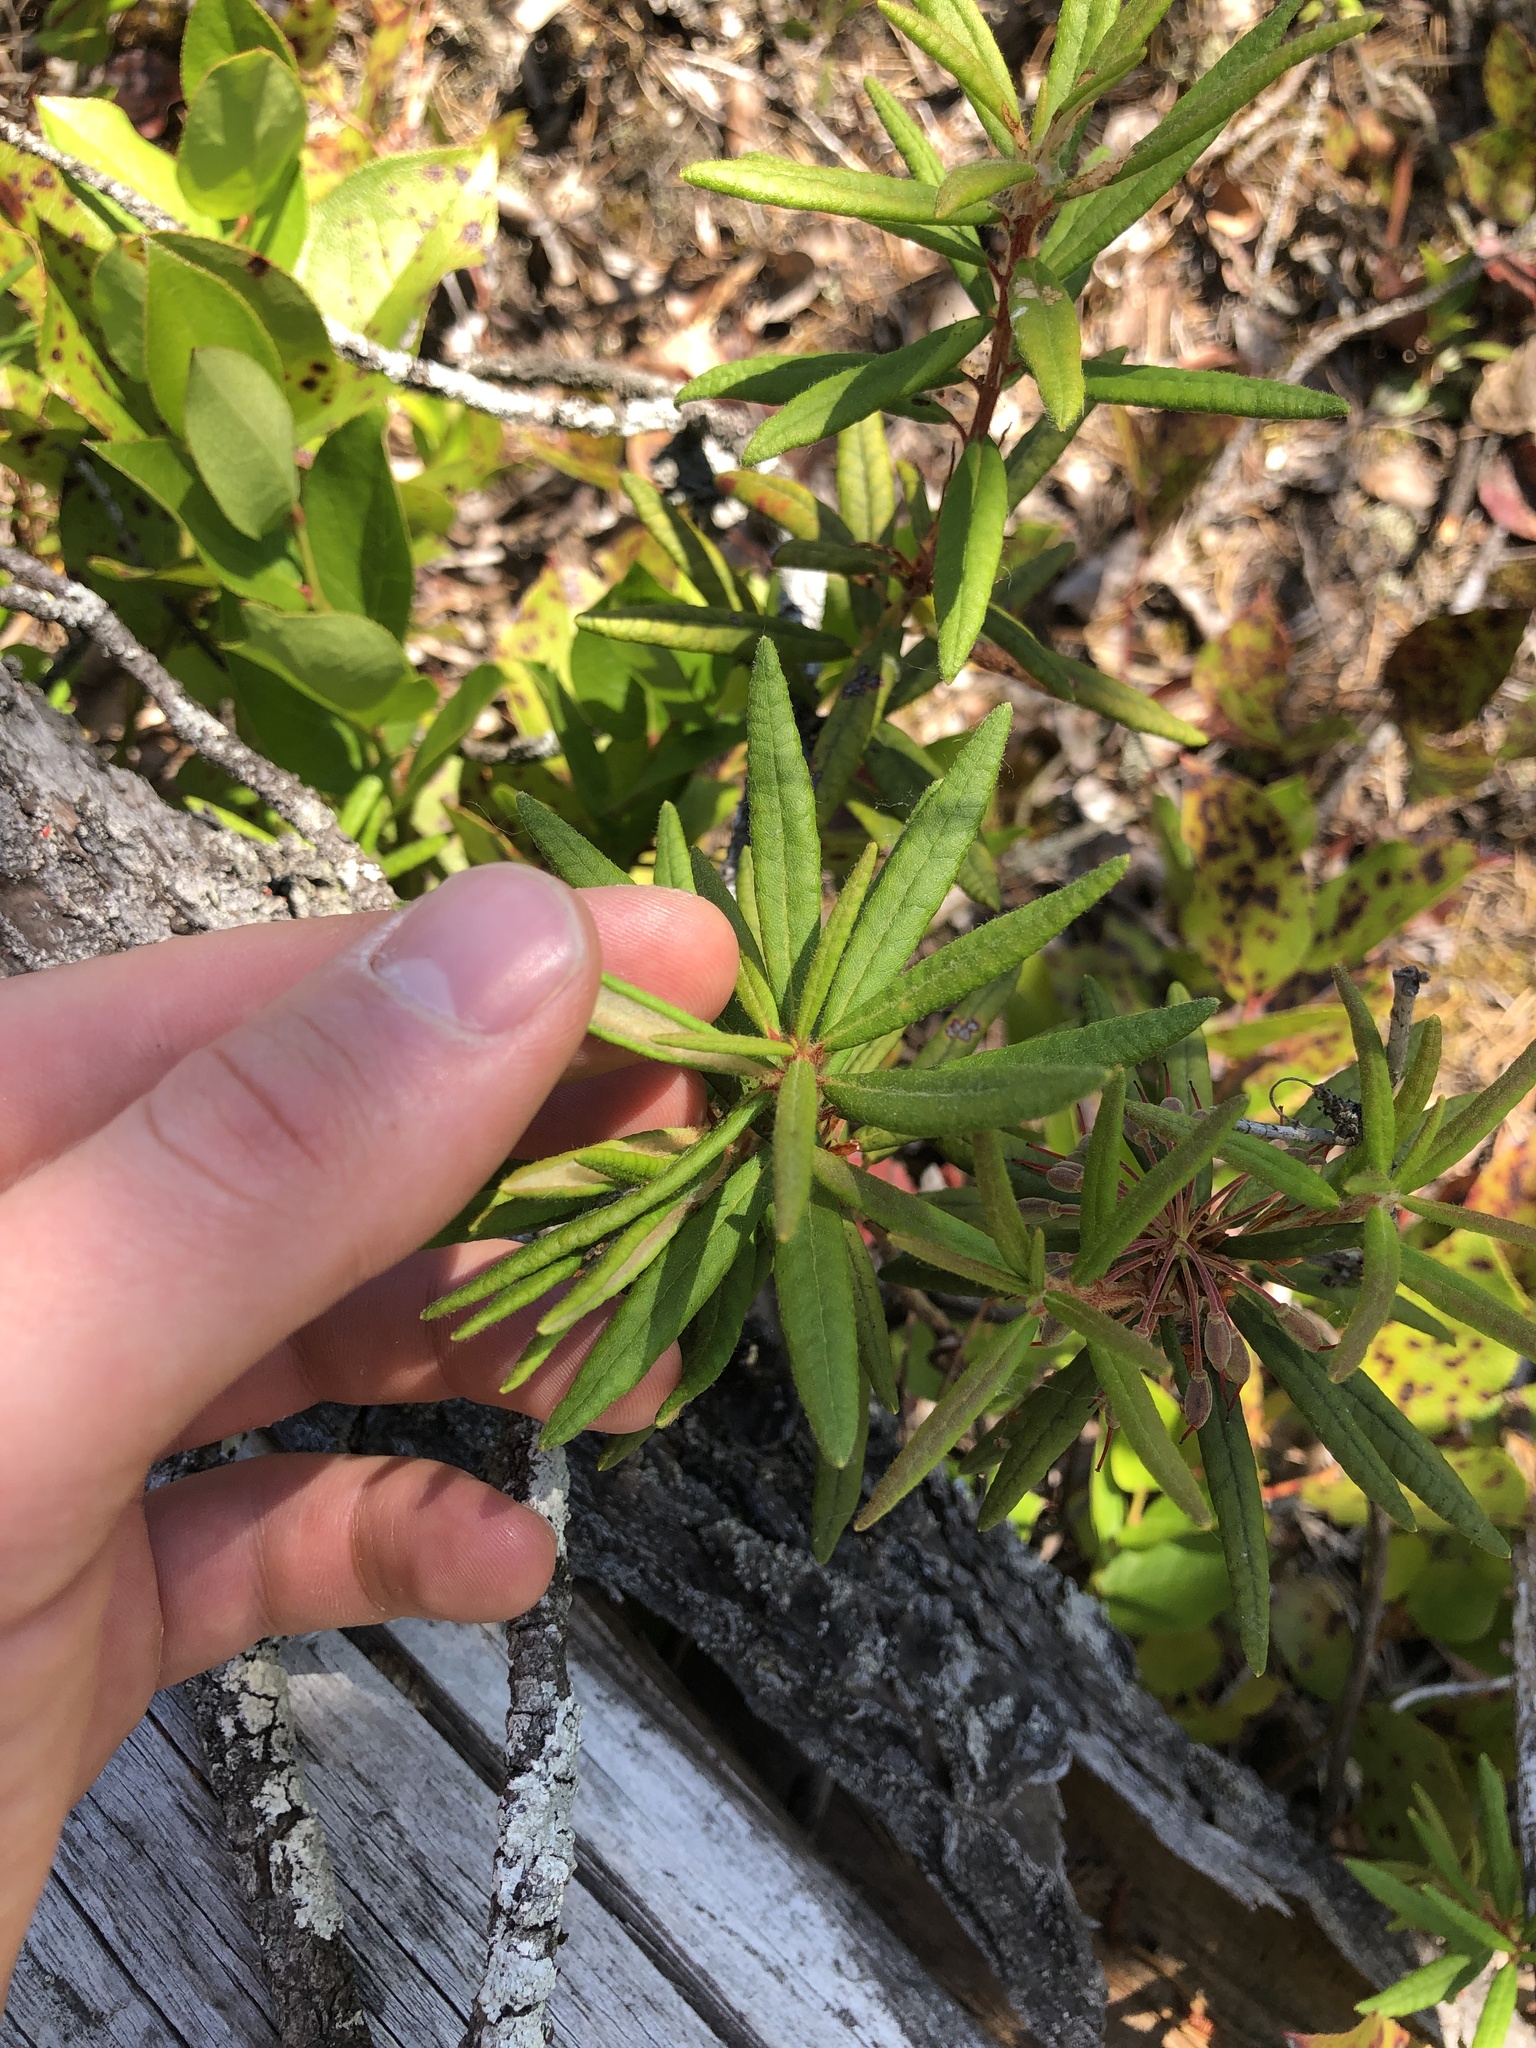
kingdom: Plantae
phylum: Tracheophyta
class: Magnoliopsida
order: Ericales
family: Ericaceae
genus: Rhododendron
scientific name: Rhododendron groenlandicum
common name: Bog labrador tea
